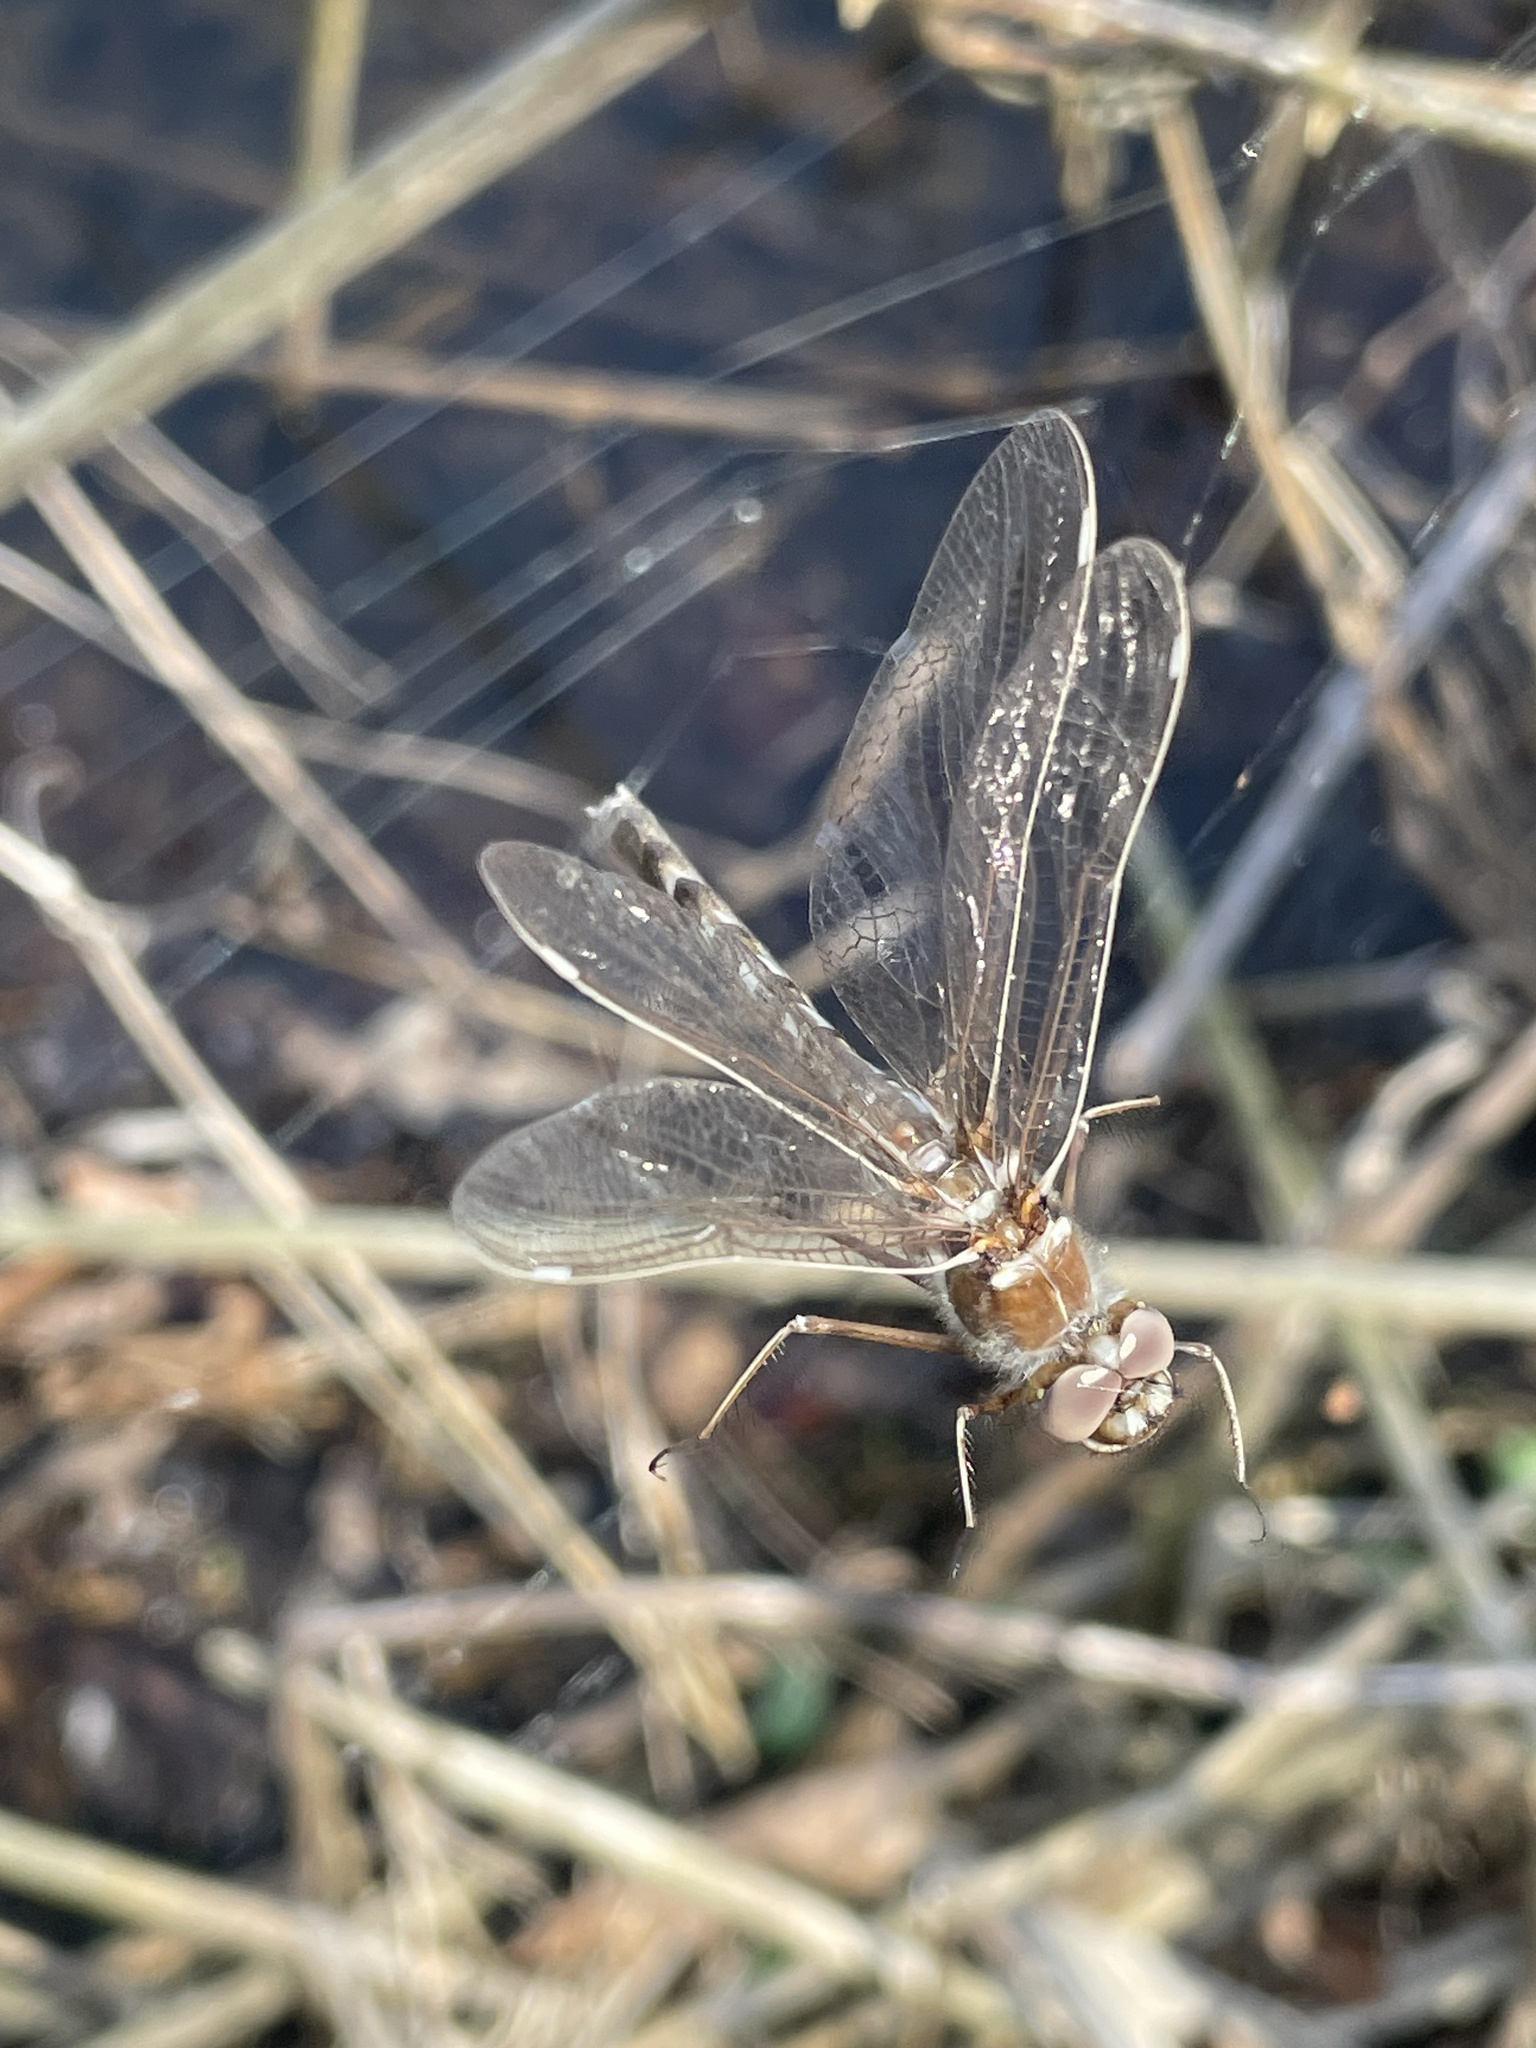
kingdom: Animalia
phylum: Arthropoda
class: Insecta
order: Odonata
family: Macromiidae
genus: Didymops
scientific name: Didymops transversa
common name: Stream cruiser
